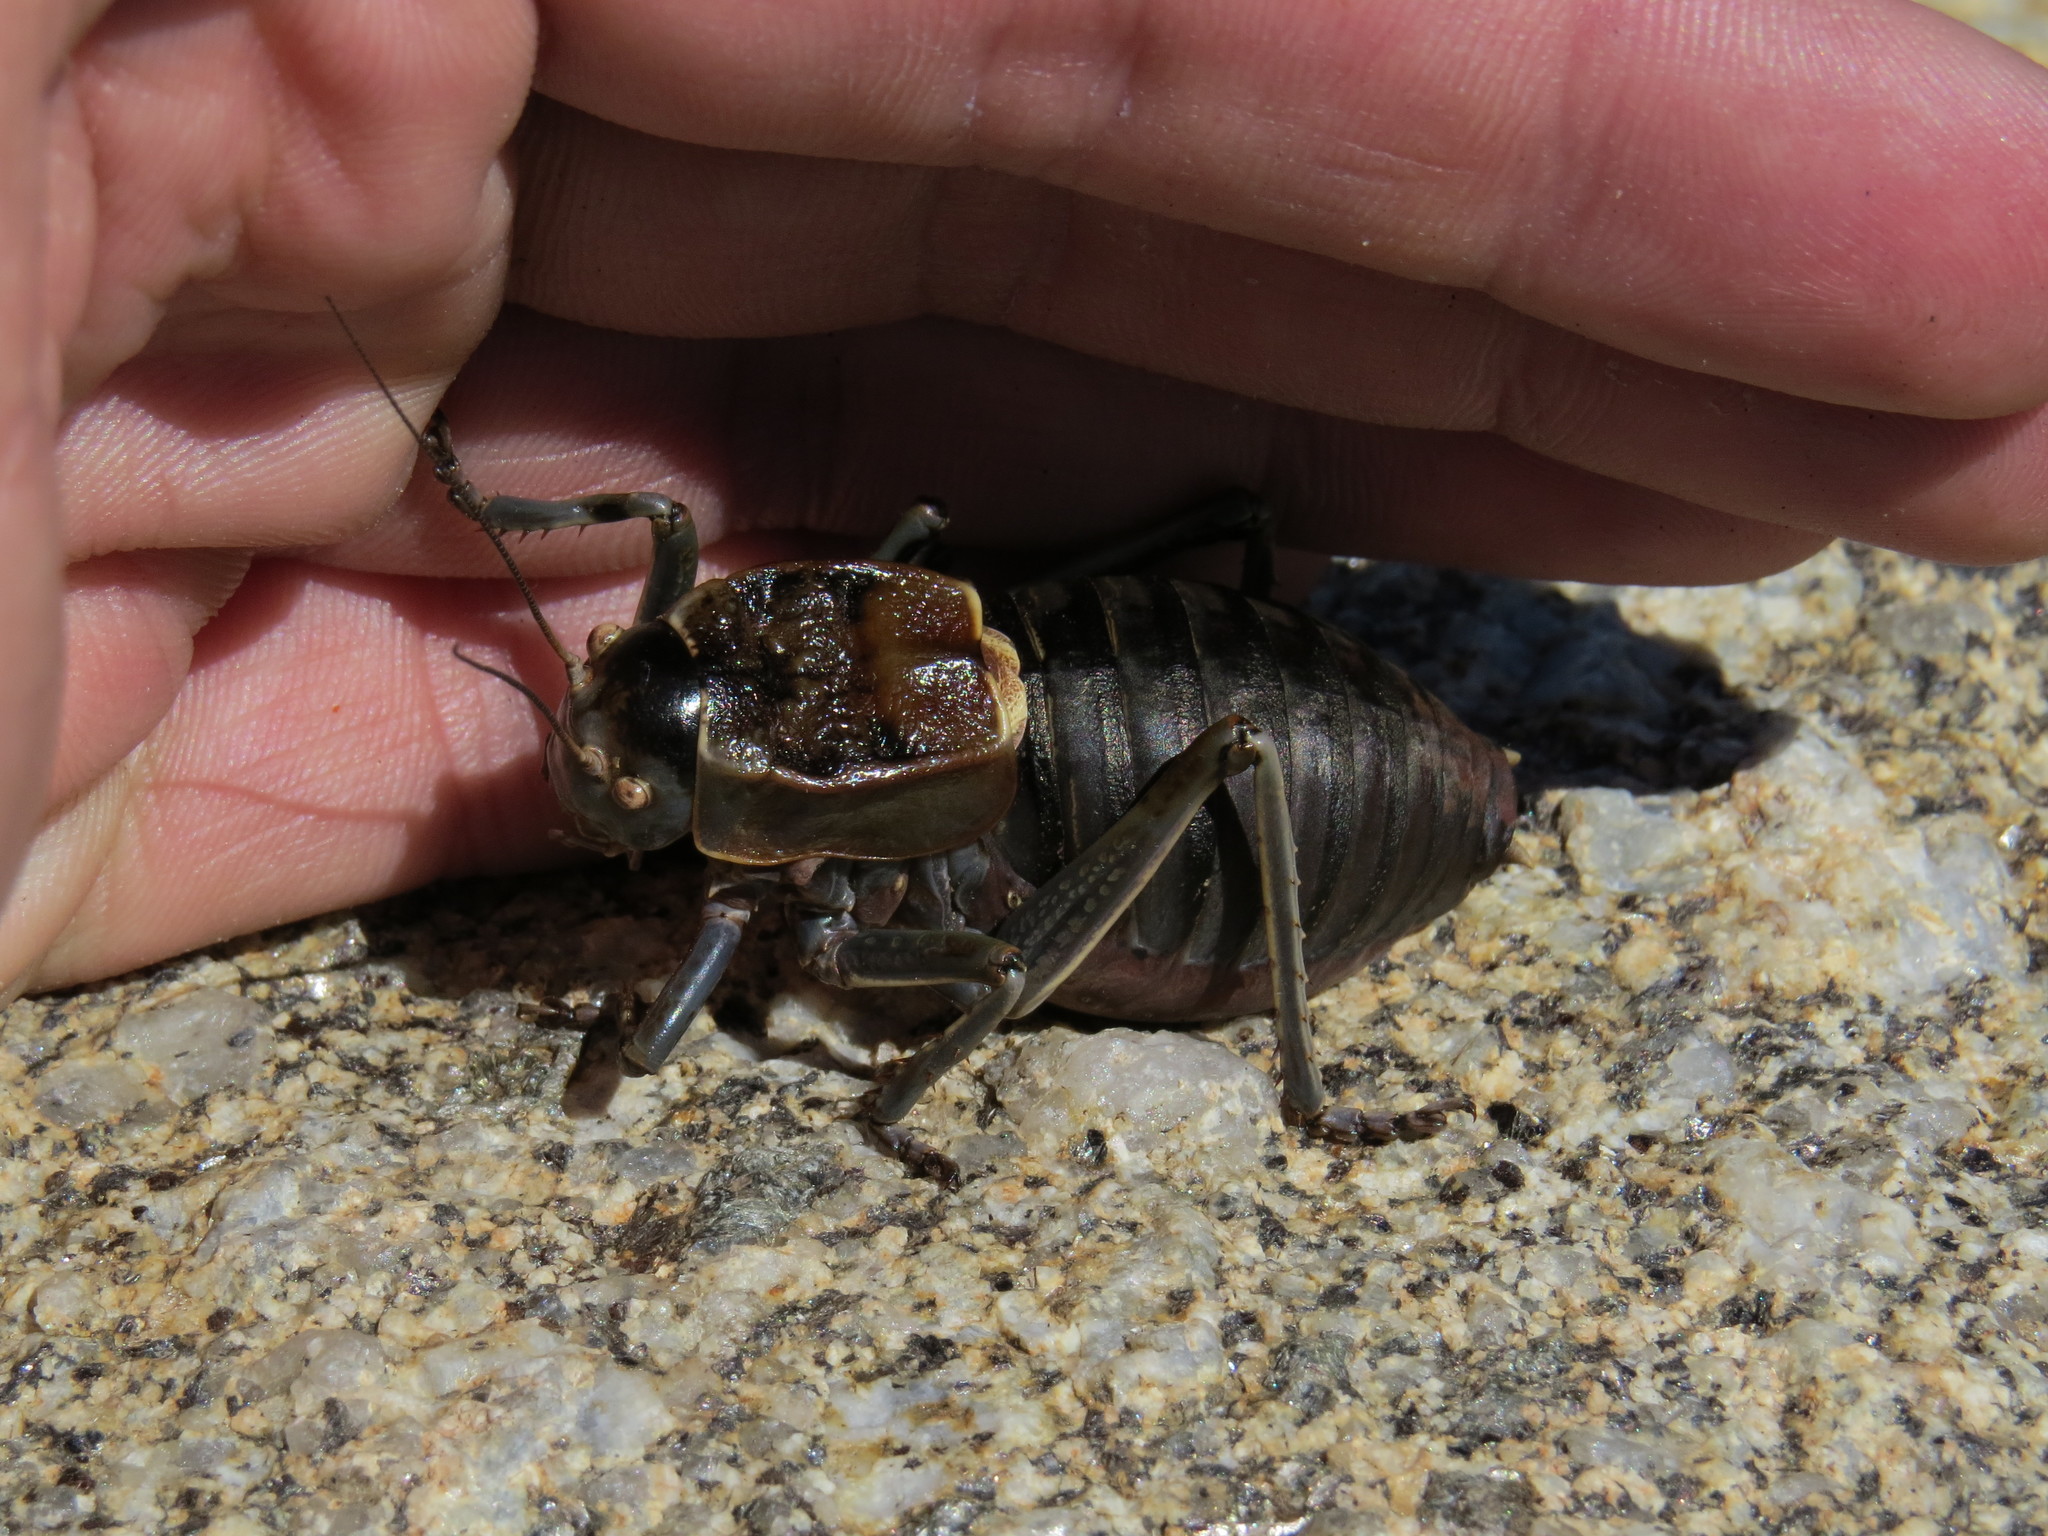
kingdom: Animalia
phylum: Arthropoda
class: Insecta
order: Orthoptera
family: Tettigoniidae
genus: Pycnogaster
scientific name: Pycnogaster jugicola
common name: Fat-bellied saddle bush-cricket
